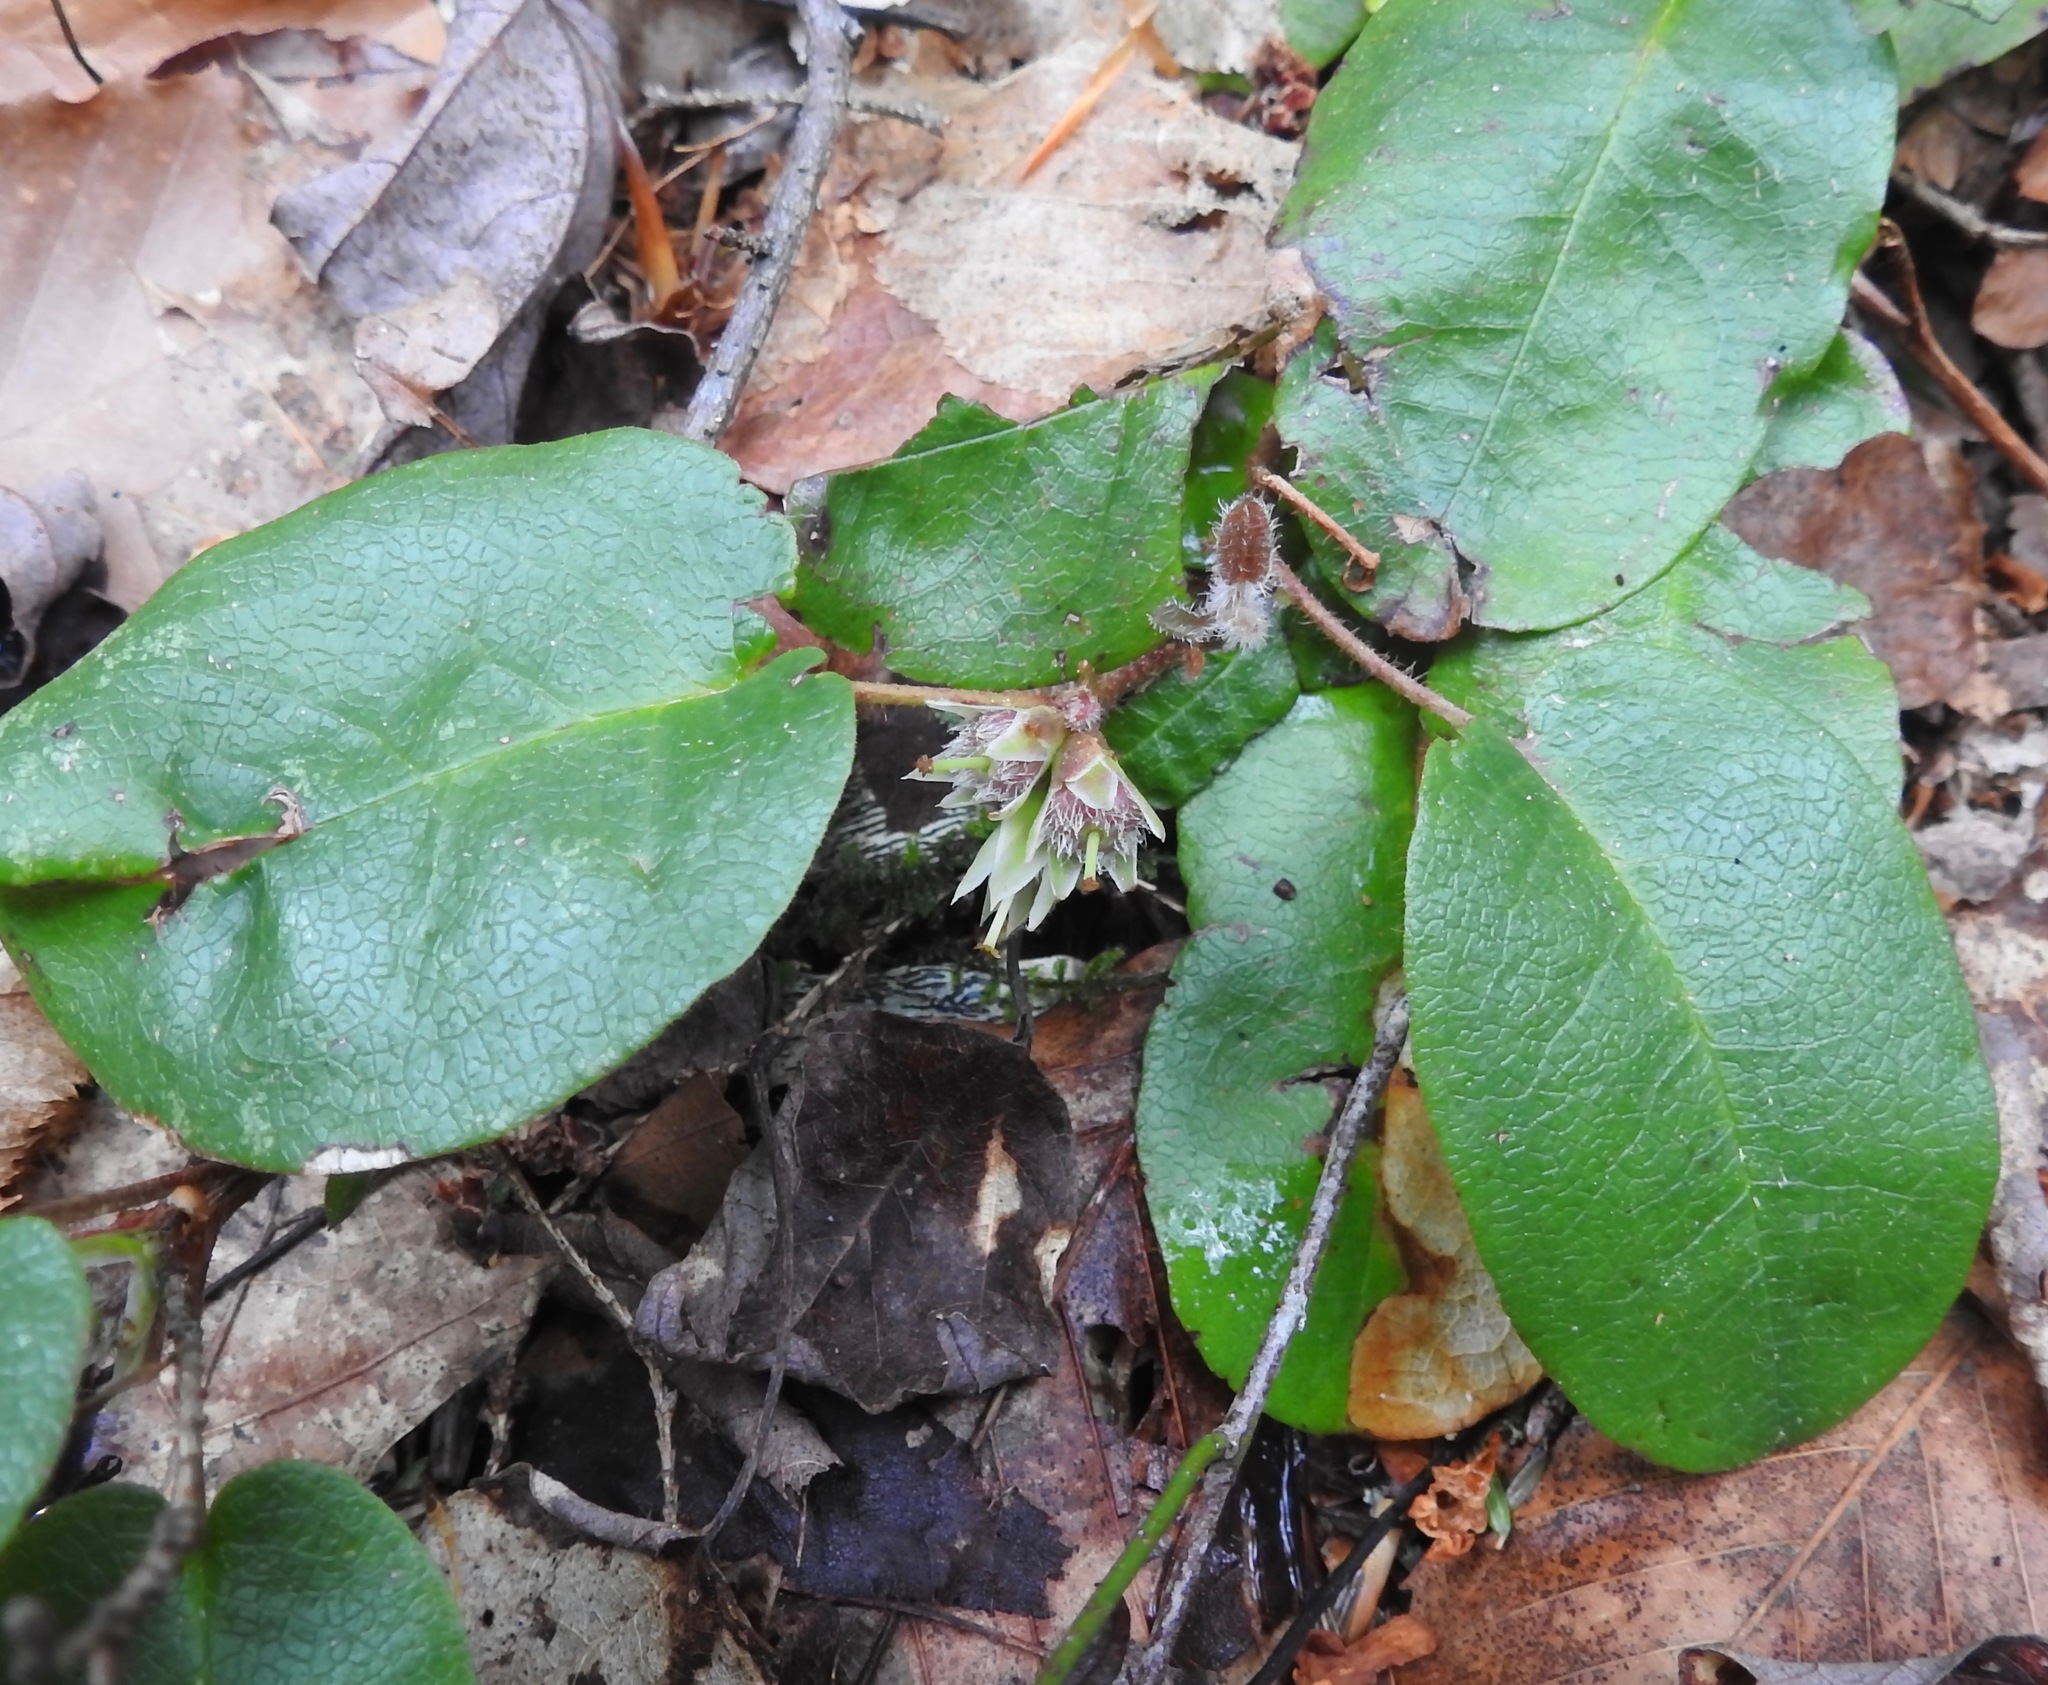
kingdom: Plantae
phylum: Tracheophyta
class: Magnoliopsida
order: Ericales
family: Ericaceae
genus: Epigaea
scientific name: Epigaea repens
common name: Gravelroot
